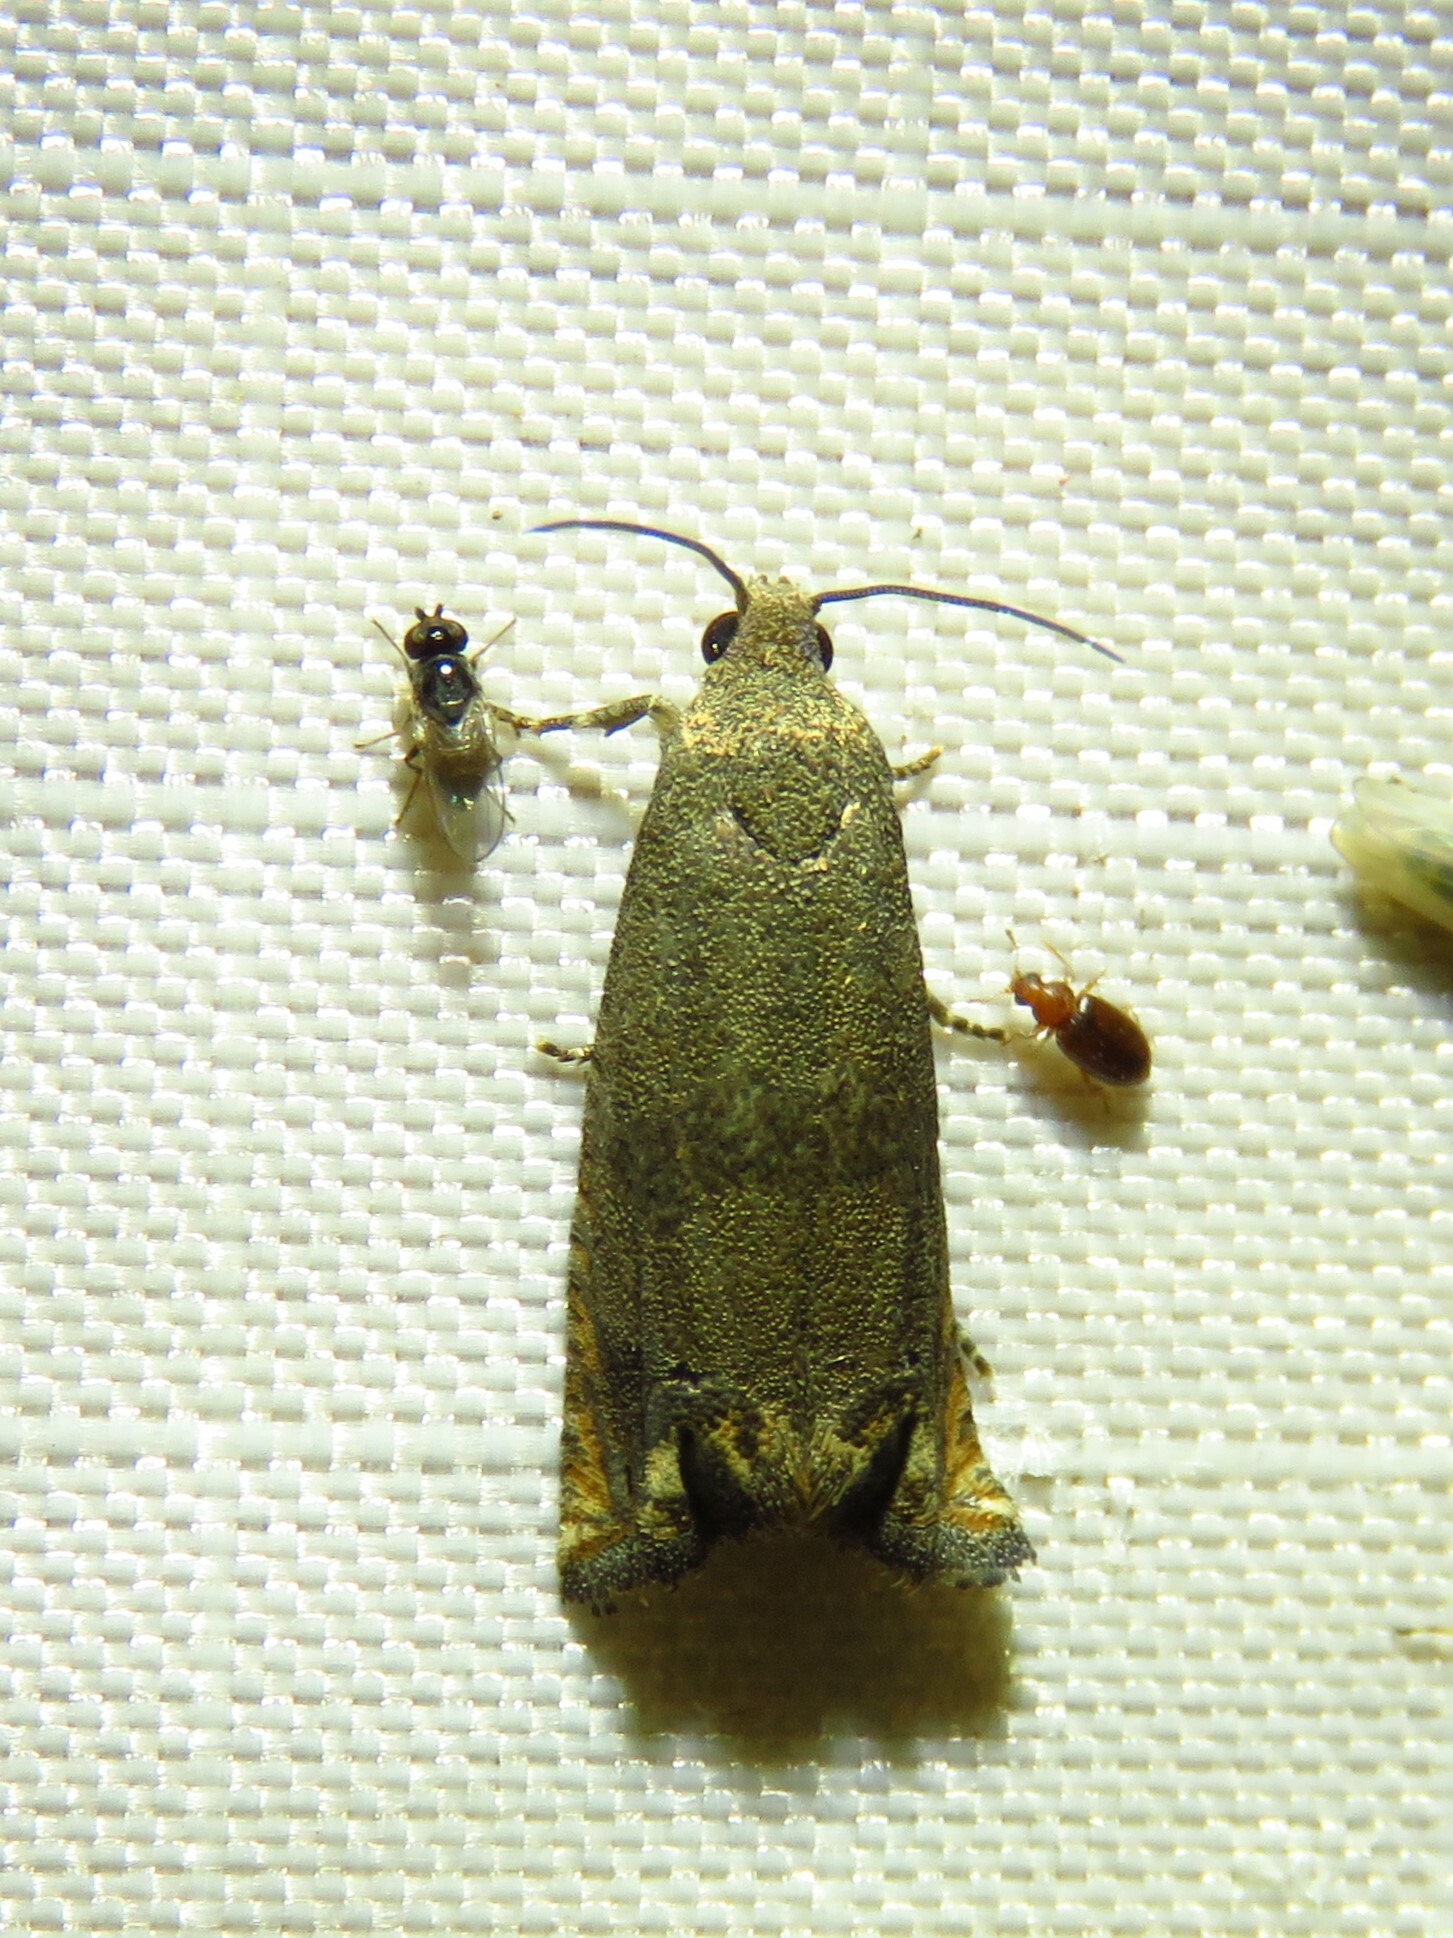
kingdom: Animalia
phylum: Arthropoda
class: Insecta
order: Lepidoptera
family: Tortricidae
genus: Epiblema
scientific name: Epiblema strenuana
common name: Ragweed borer moth
